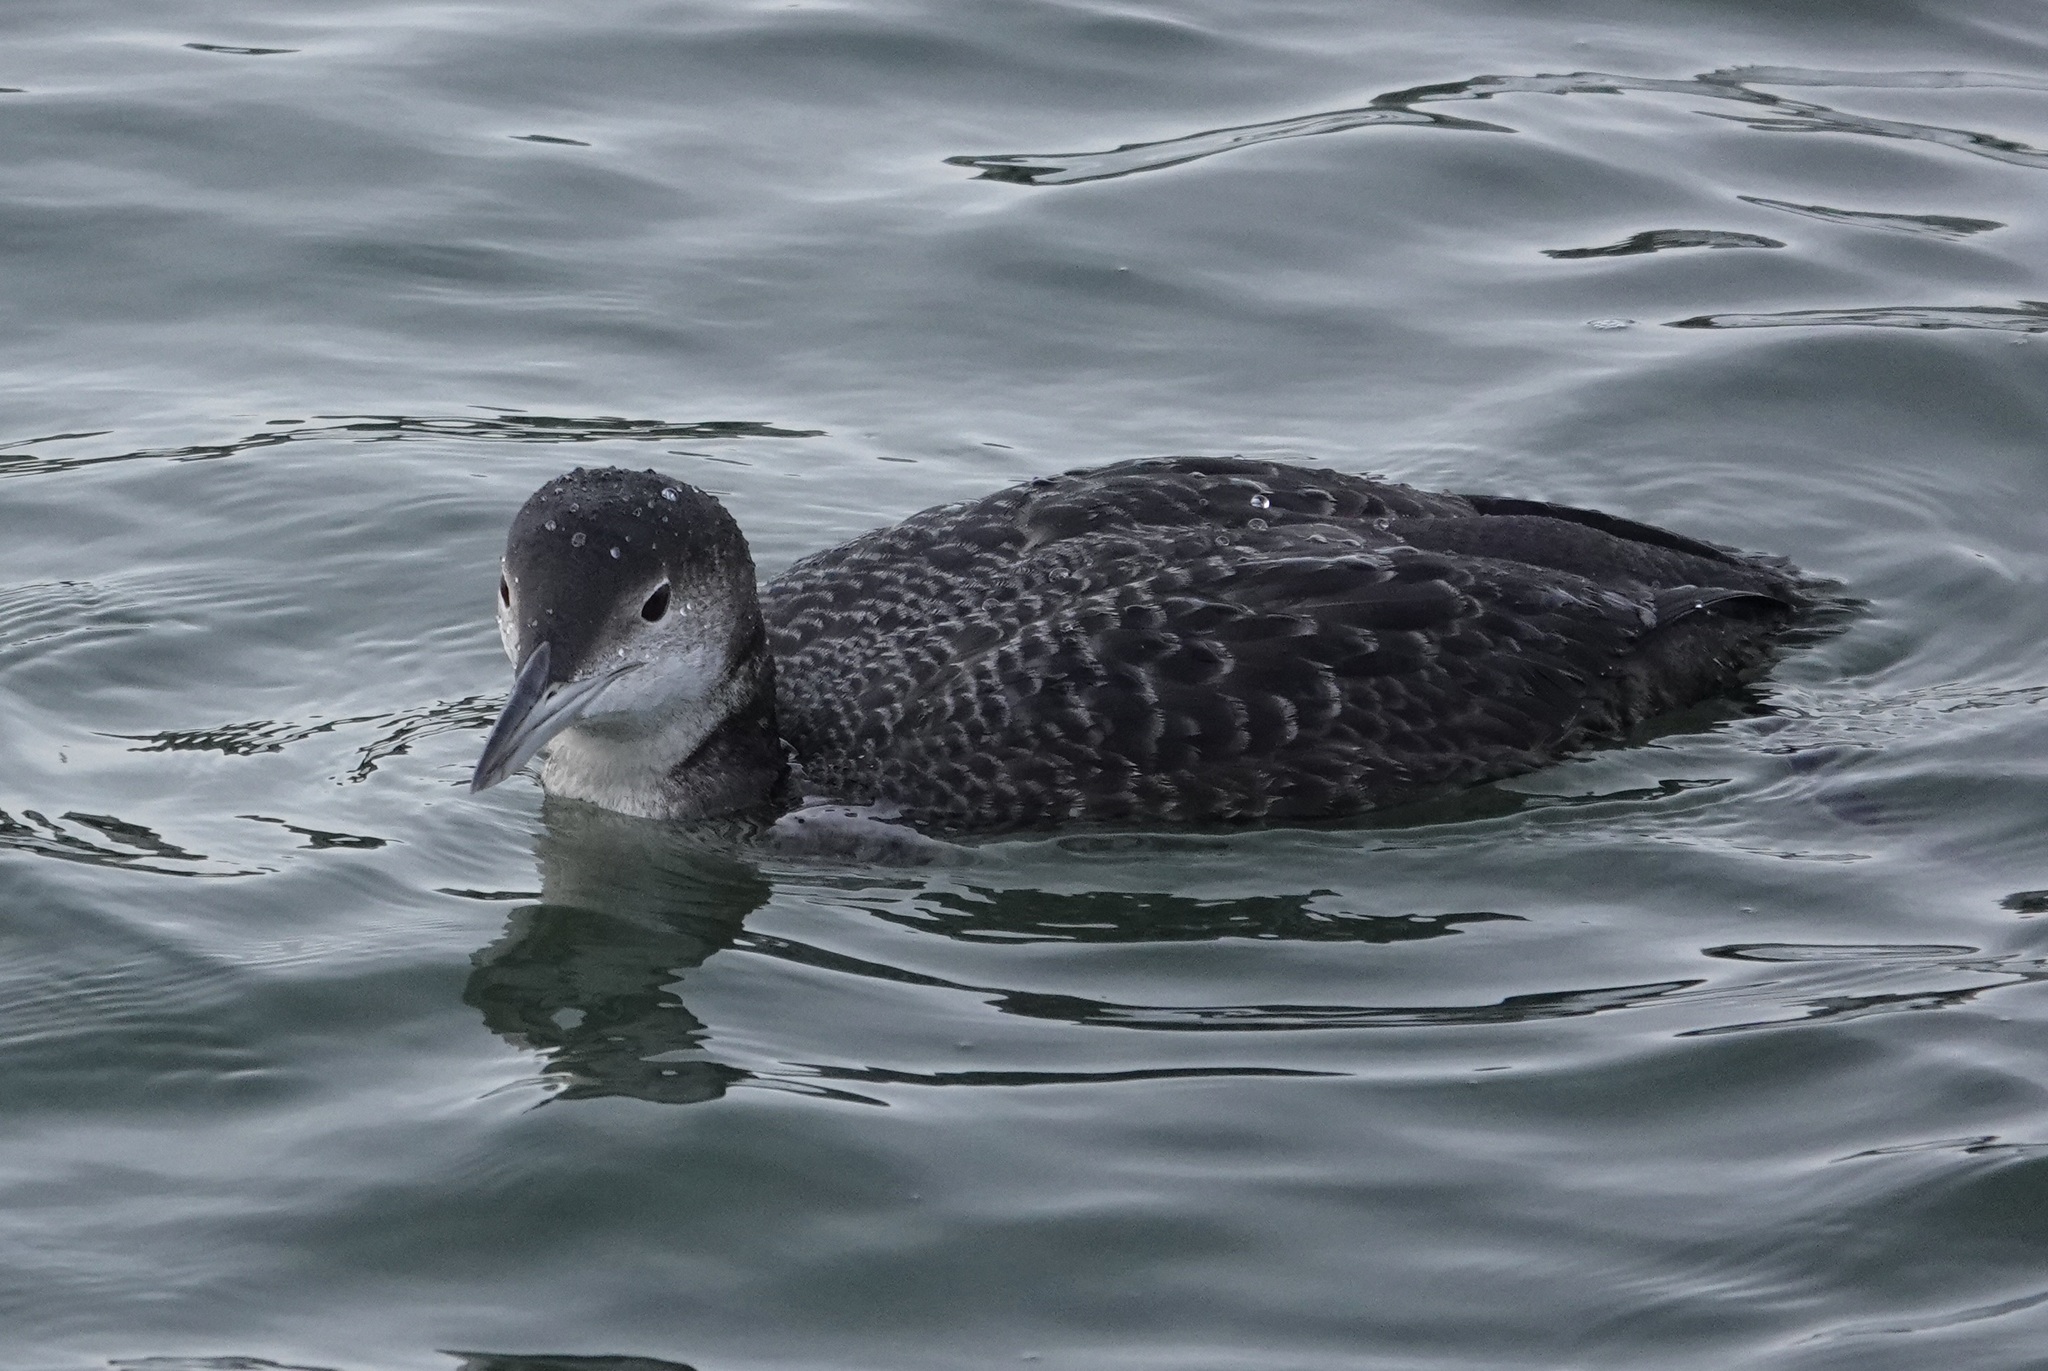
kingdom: Animalia
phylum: Chordata
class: Aves
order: Gaviiformes
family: Gaviidae
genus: Gavia
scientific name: Gavia immer
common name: Common loon
